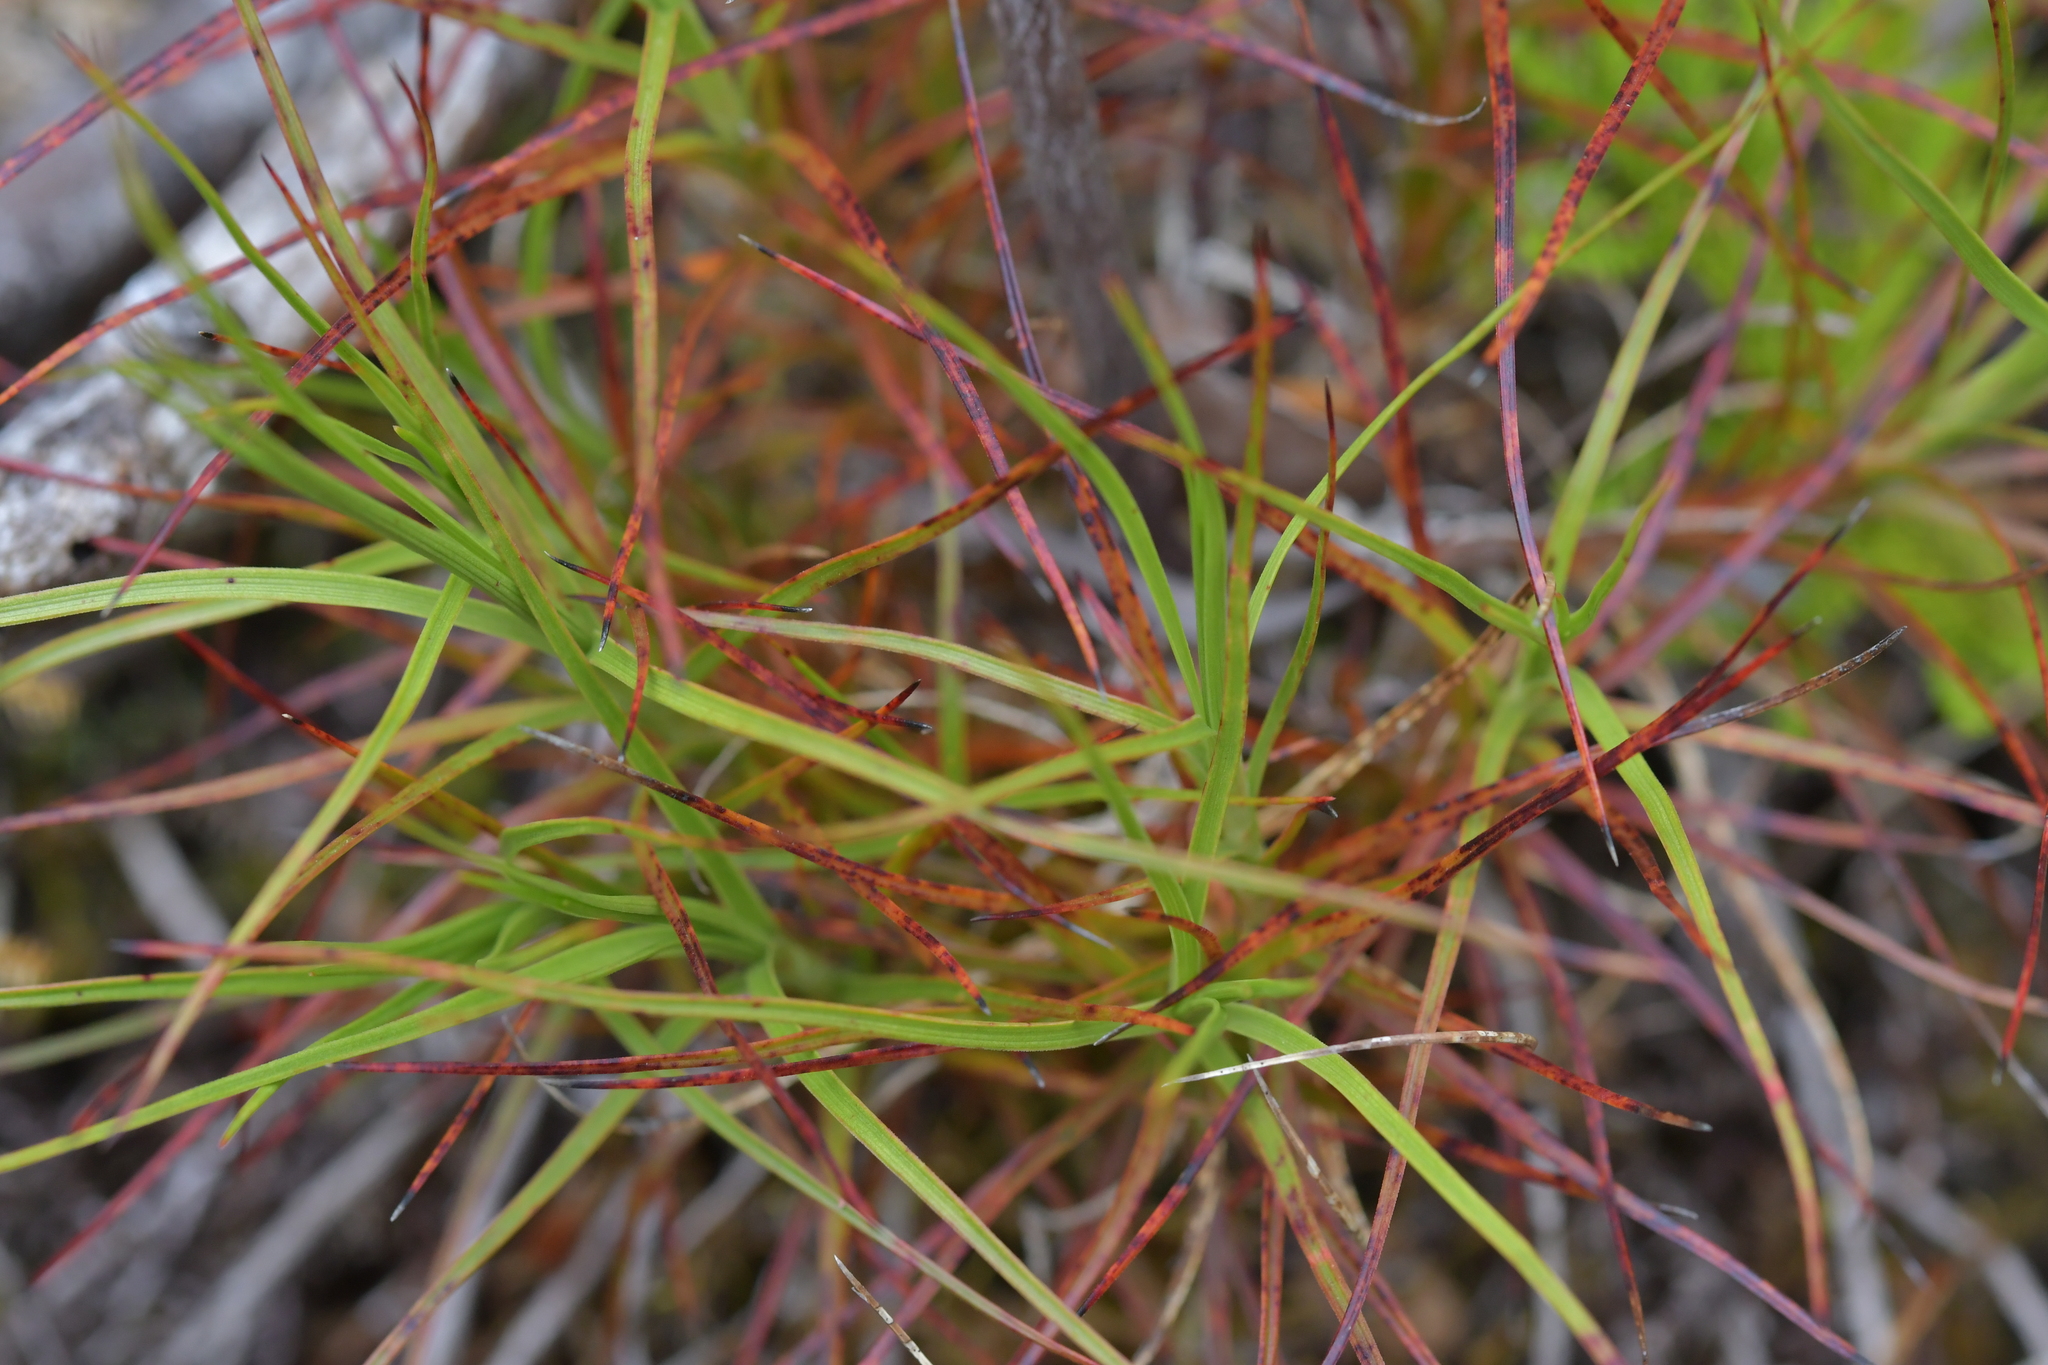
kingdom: Plantae
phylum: Tracheophyta
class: Magnoliopsida
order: Ericales
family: Ericaceae
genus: Dracophyllum
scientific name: Dracophyllum filifolium
